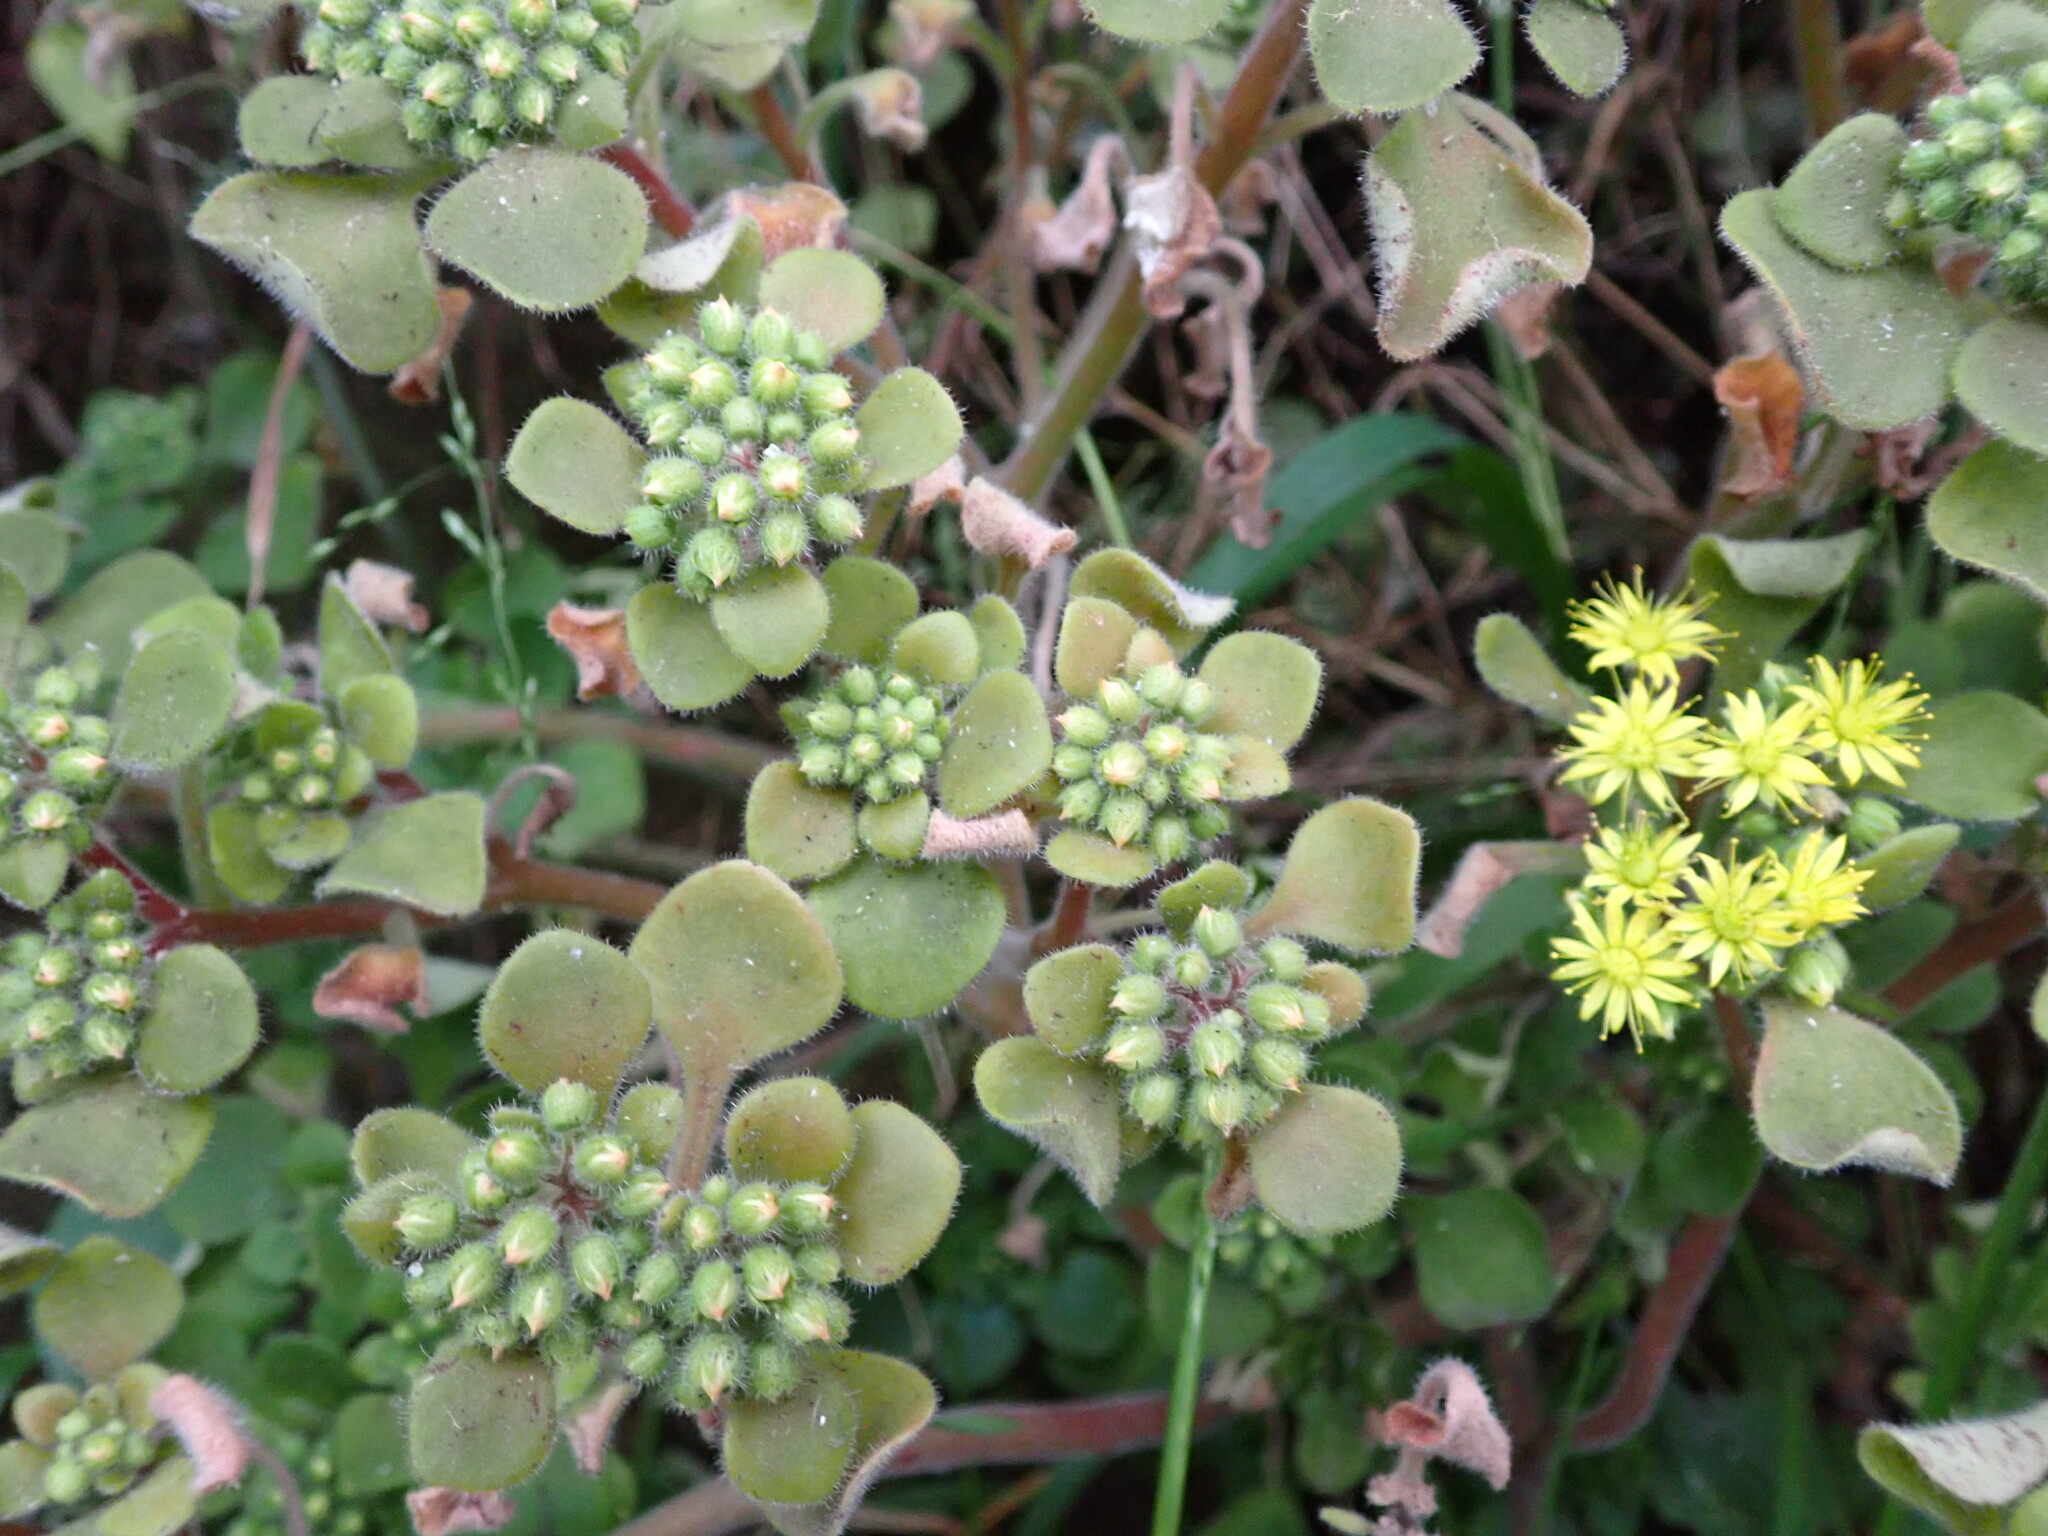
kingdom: Plantae
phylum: Tracheophyta
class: Magnoliopsida
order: Saxifragales
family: Crassulaceae
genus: Aichryson
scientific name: Aichryson laxum
